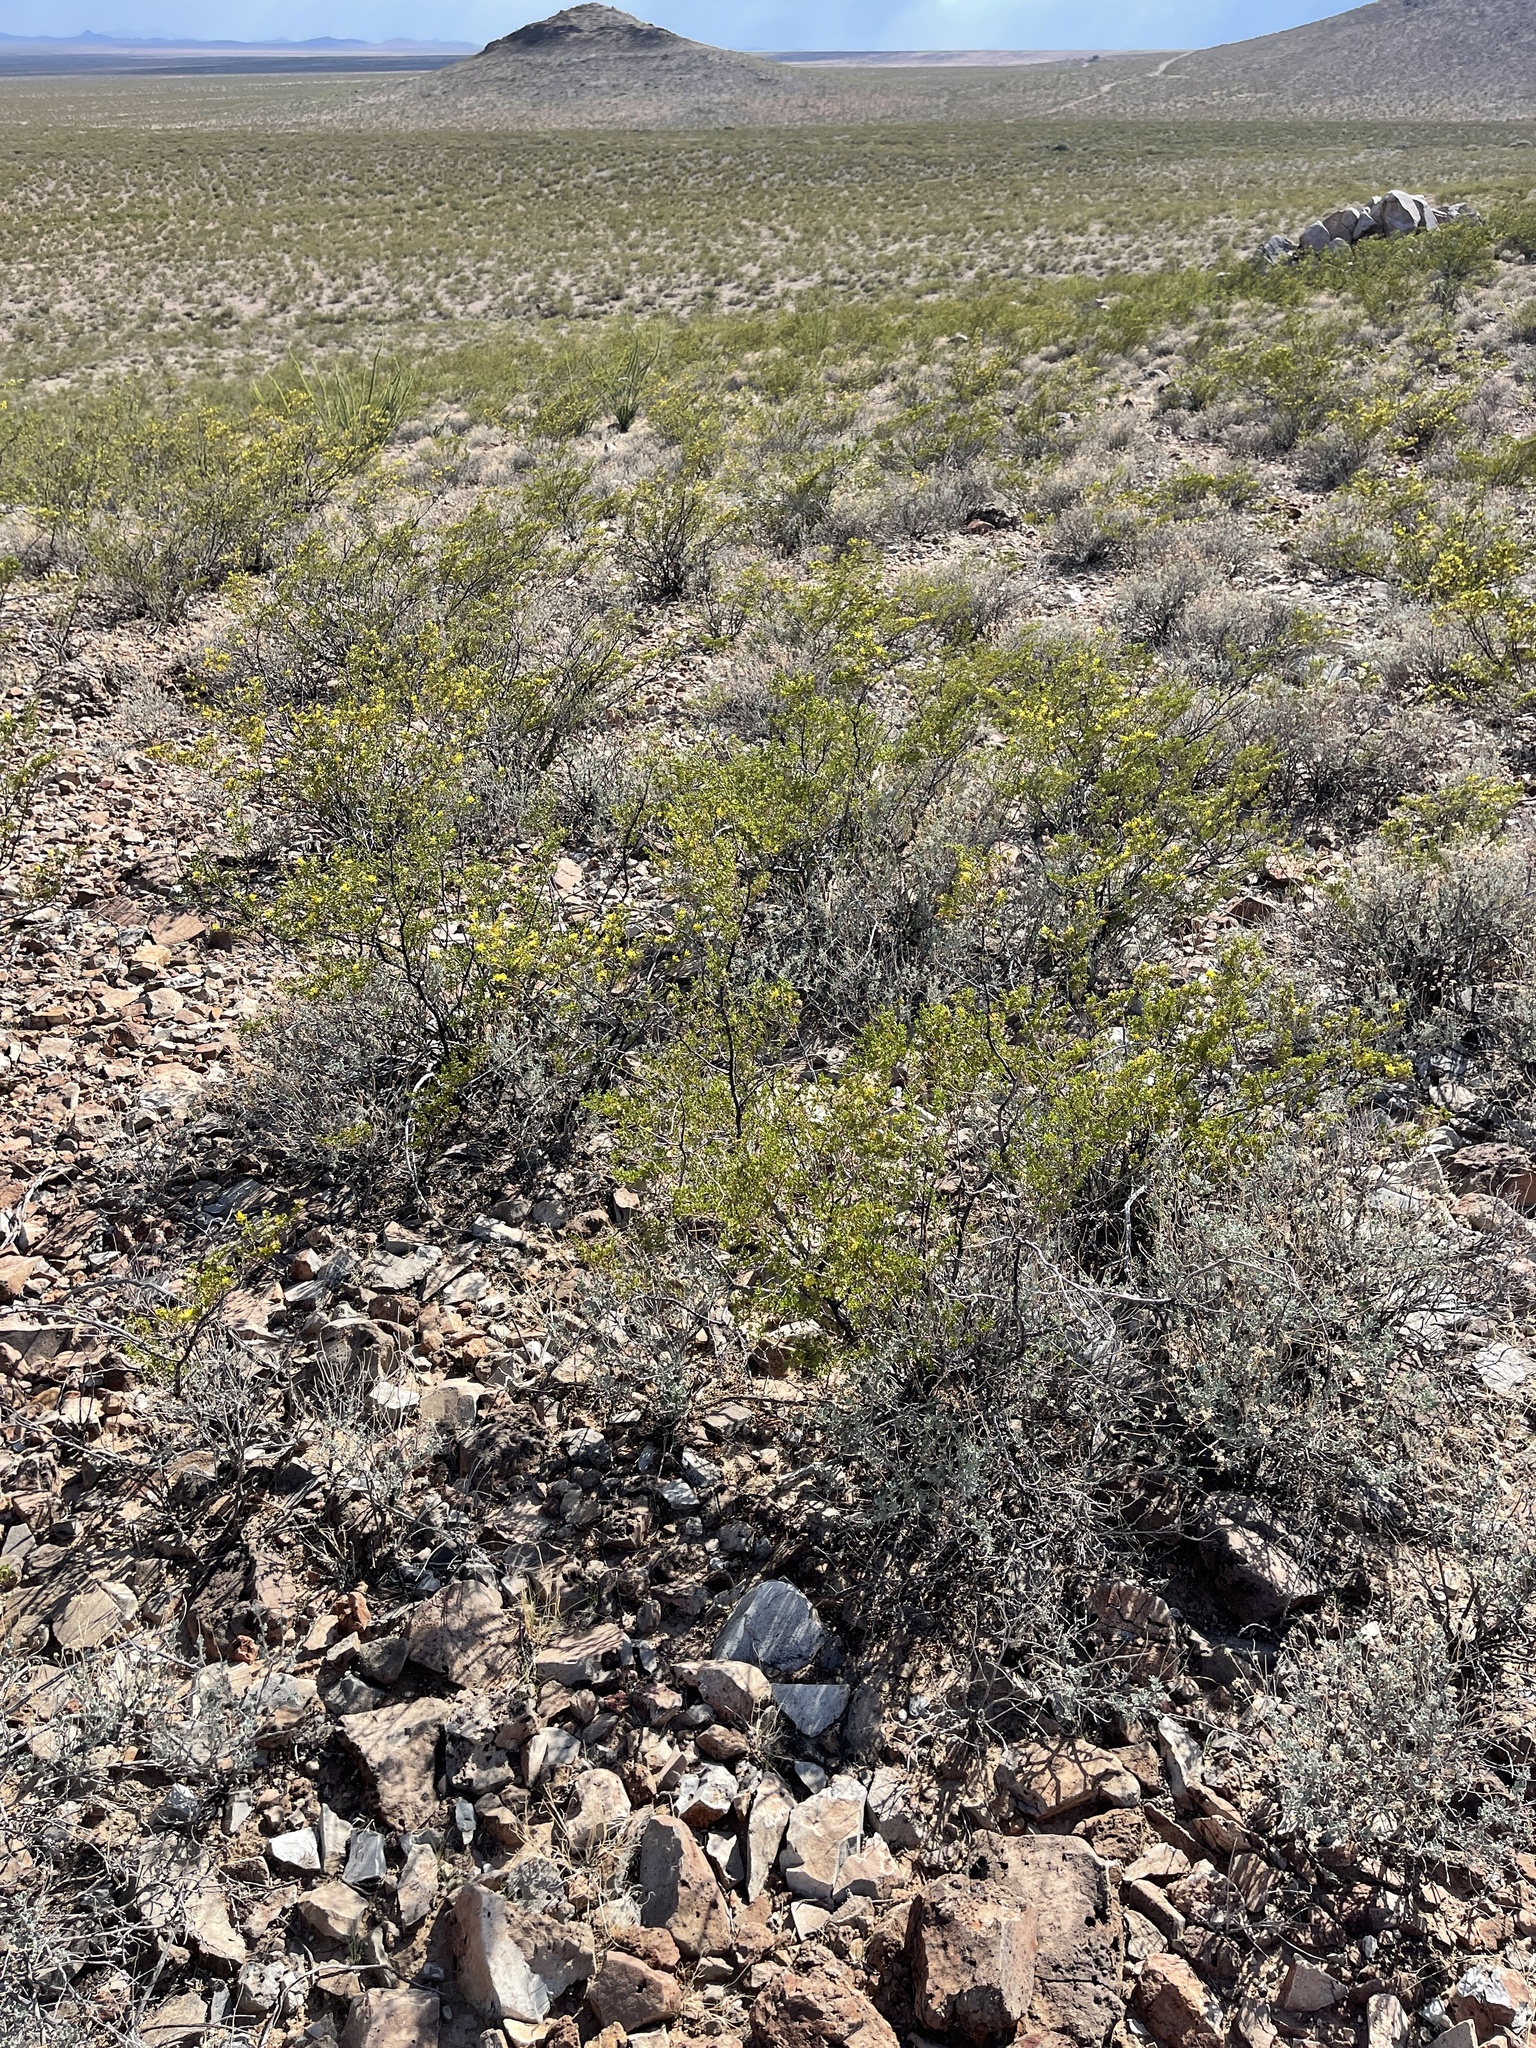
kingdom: Plantae
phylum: Tracheophyta
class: Magnoliopsida
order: Zygophyllales
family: Zygophyllaceae
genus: Larrea
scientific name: Larrea tridentata
